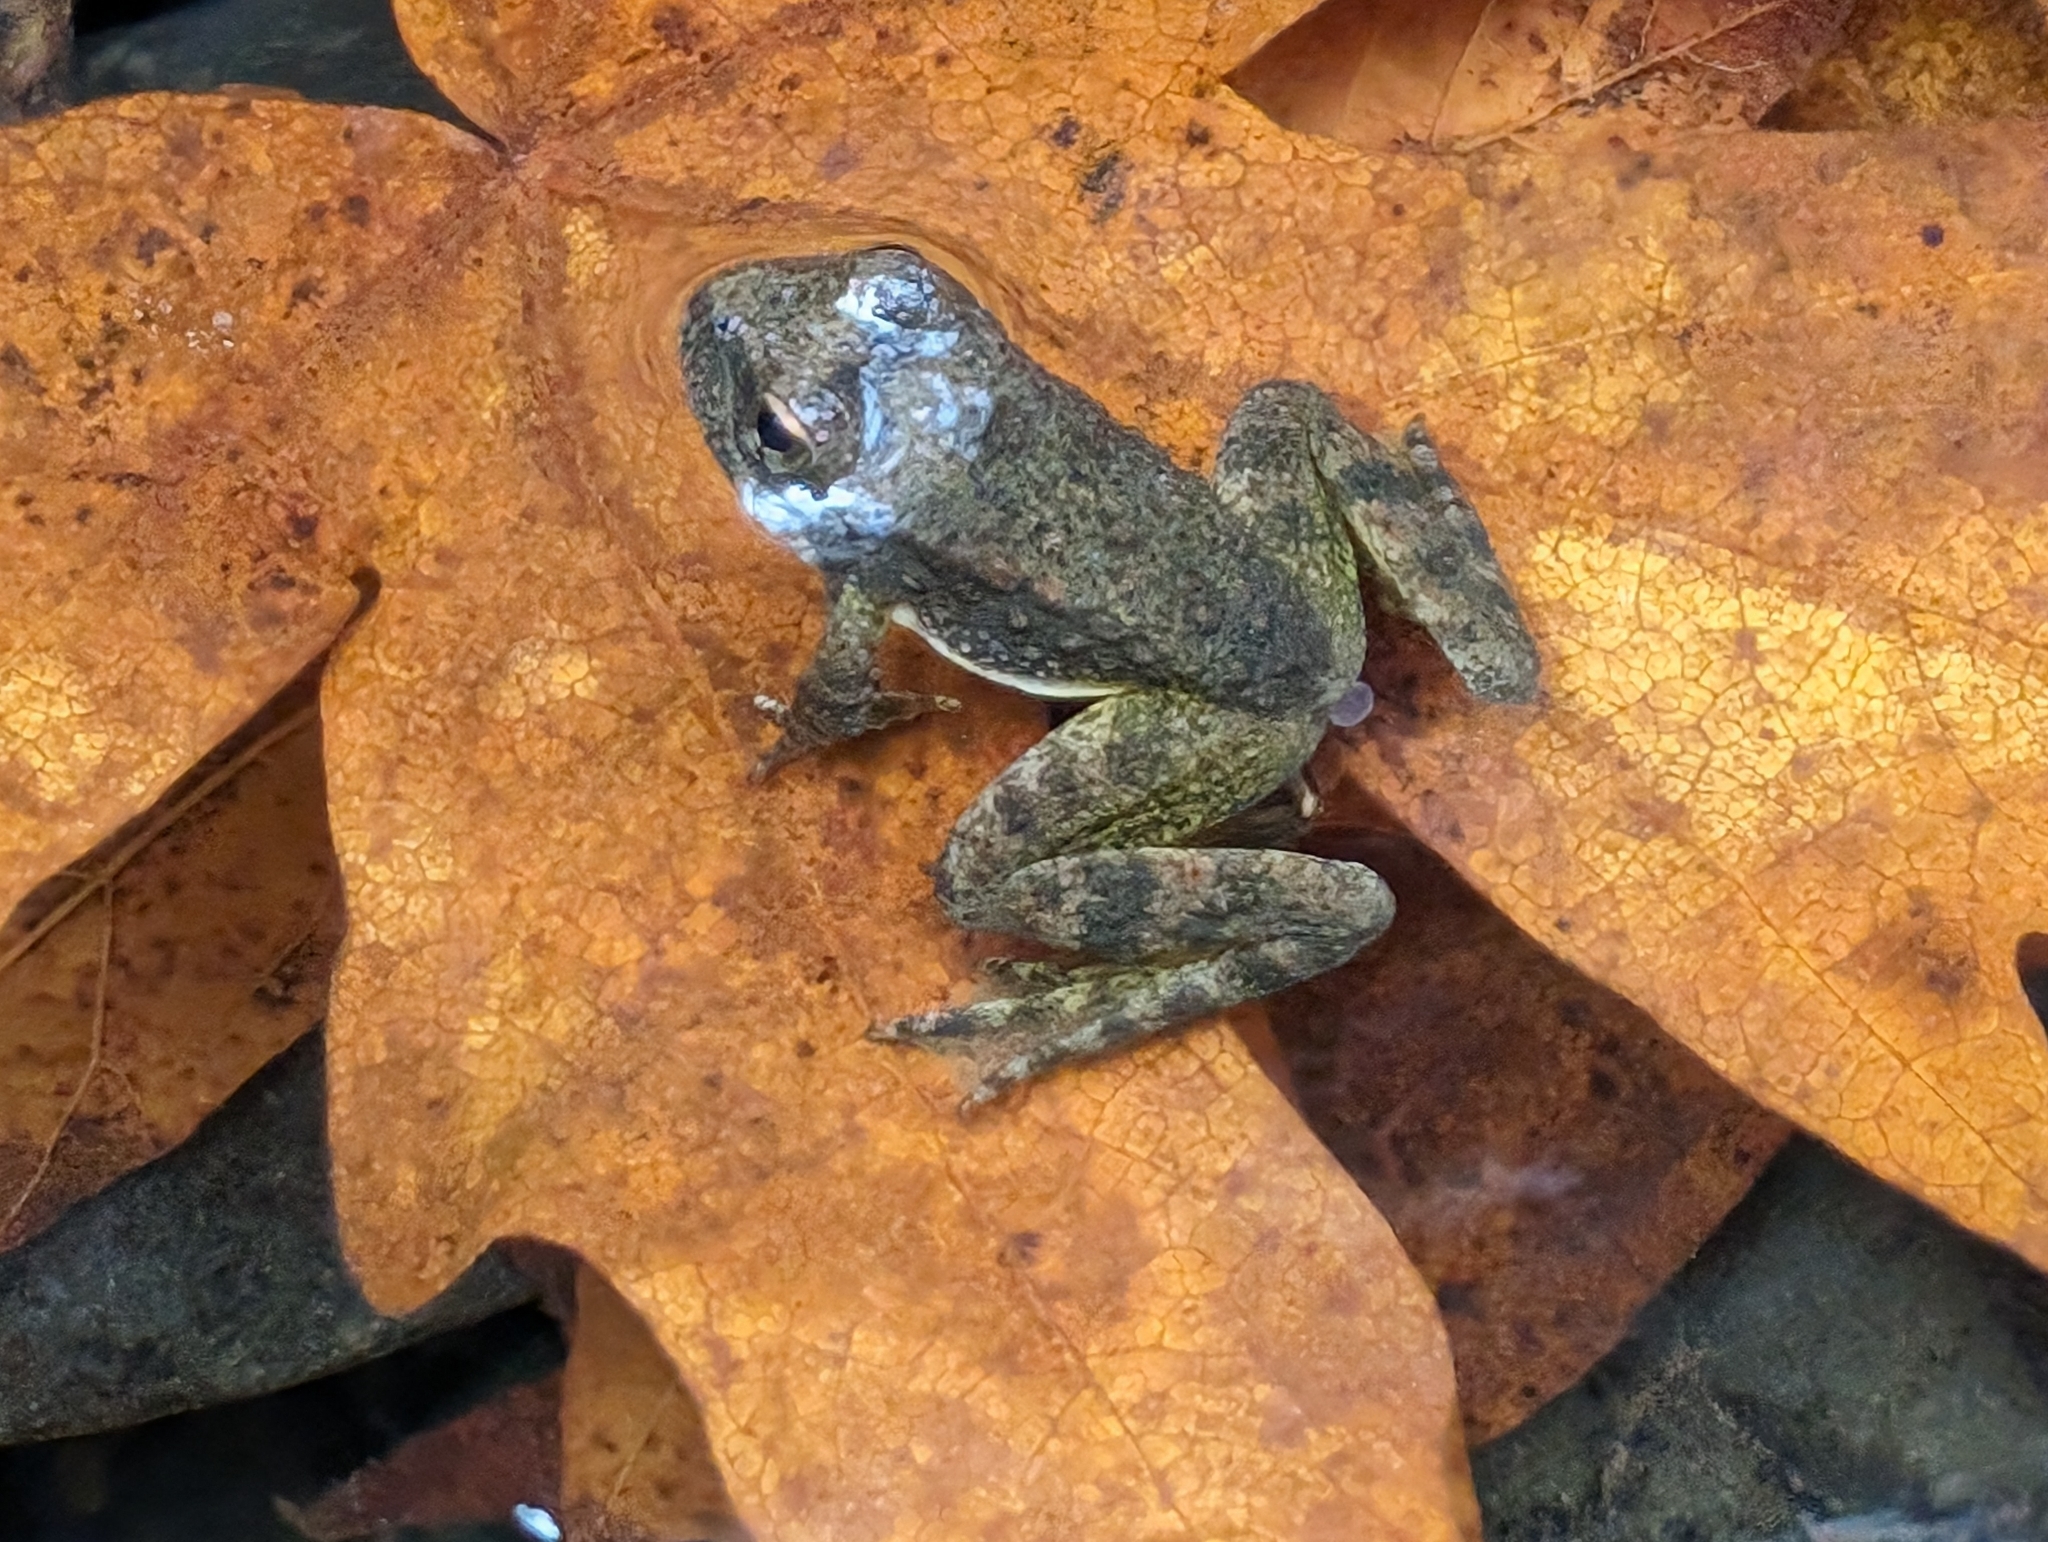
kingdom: Animalia
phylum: Chordata
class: Amphibia
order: Anura
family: Ranidae
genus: Rana
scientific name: Rana boylii
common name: Foothill yellow-legged frog
